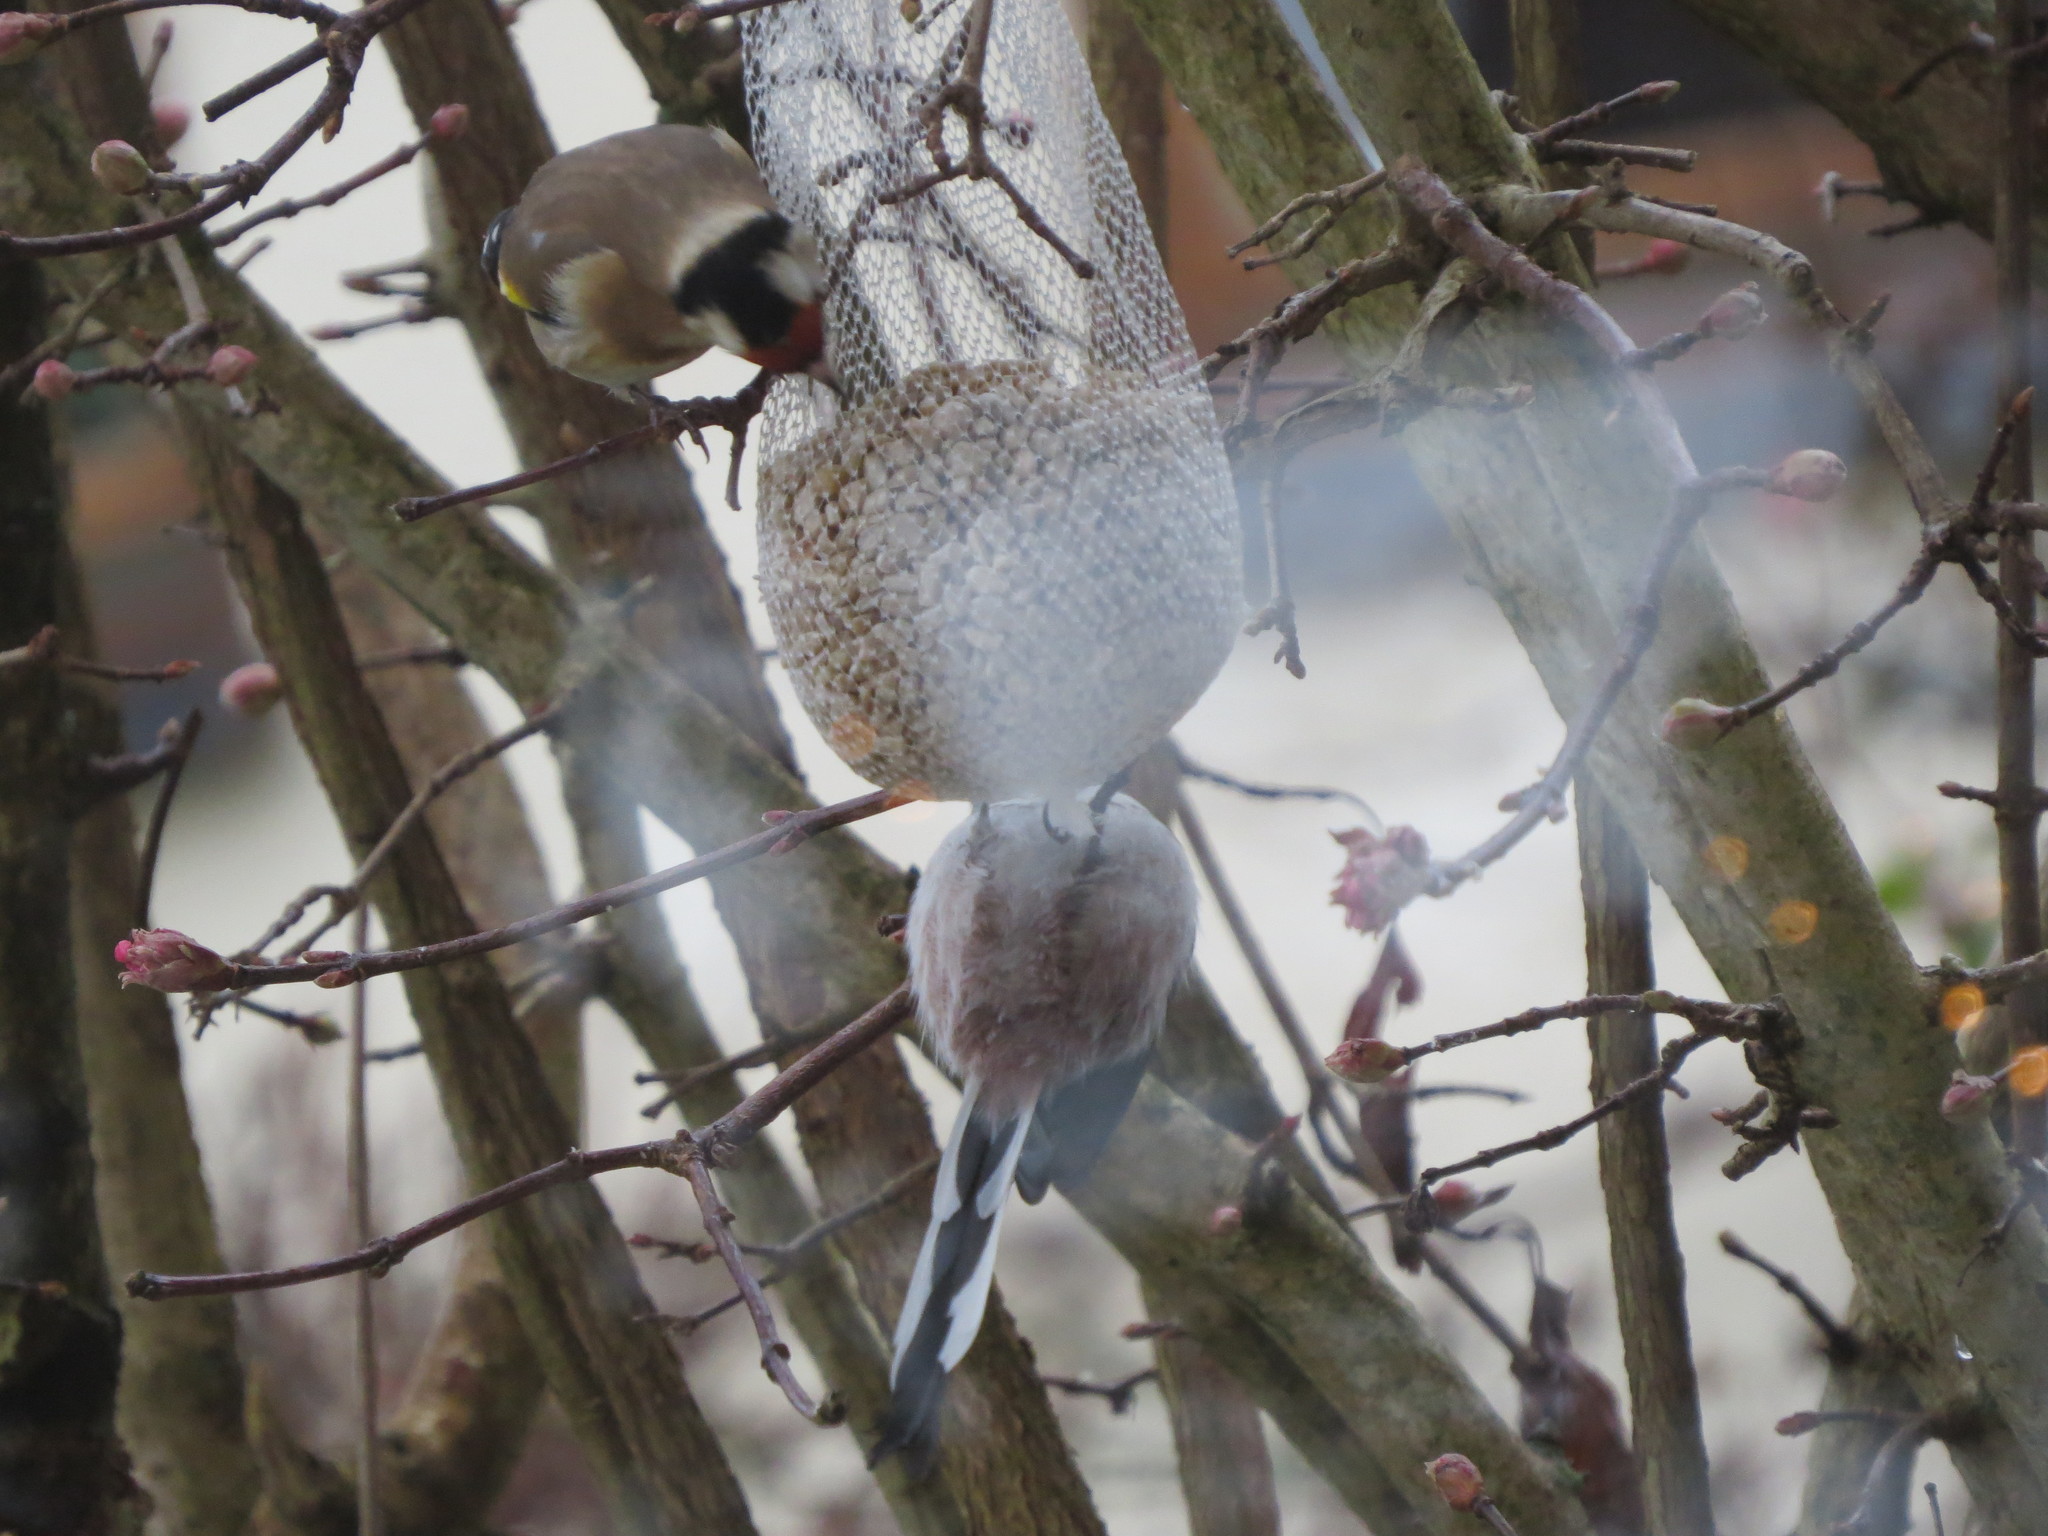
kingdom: Animalia
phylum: Chordata
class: Aves
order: Passeriformes
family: Aegithalidae
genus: Aegithalos
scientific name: Aegithalos caudatus
